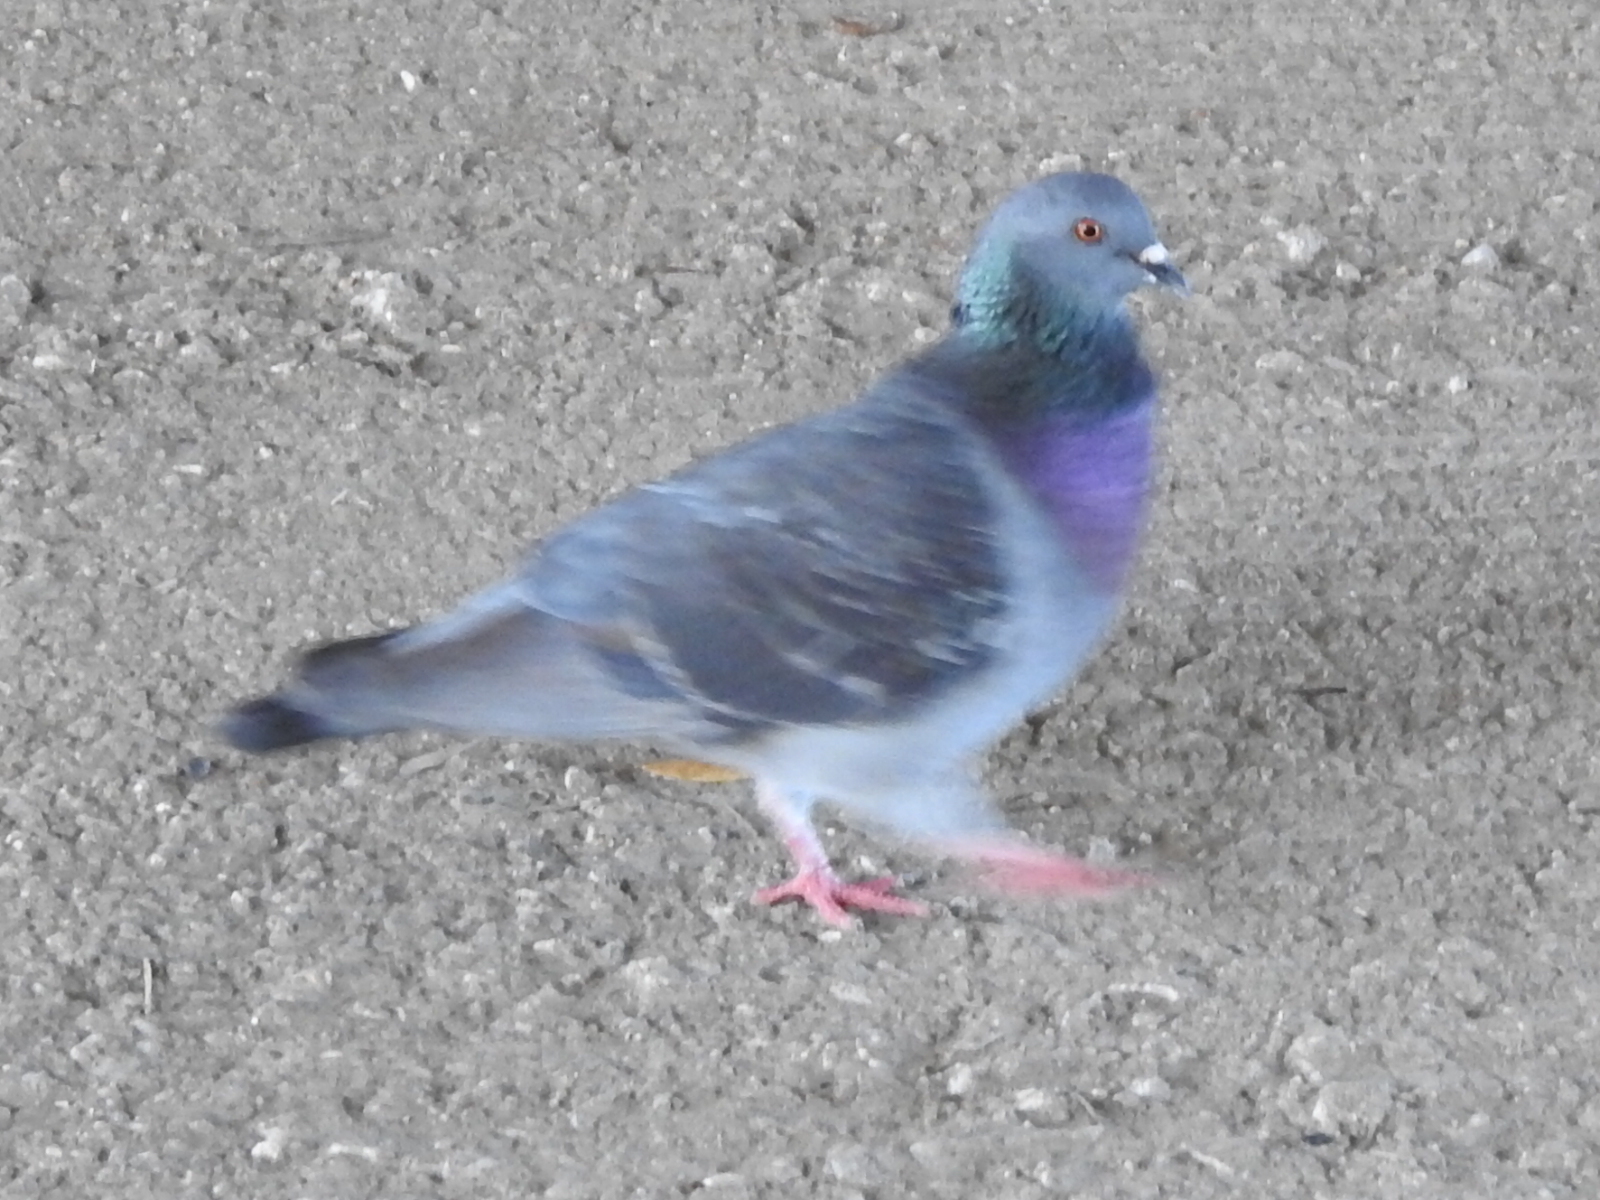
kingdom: Animalia
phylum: Chordata
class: Aves
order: Columbiformes
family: Columbidae
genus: Columba
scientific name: Columba livia
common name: Rock pigeon
